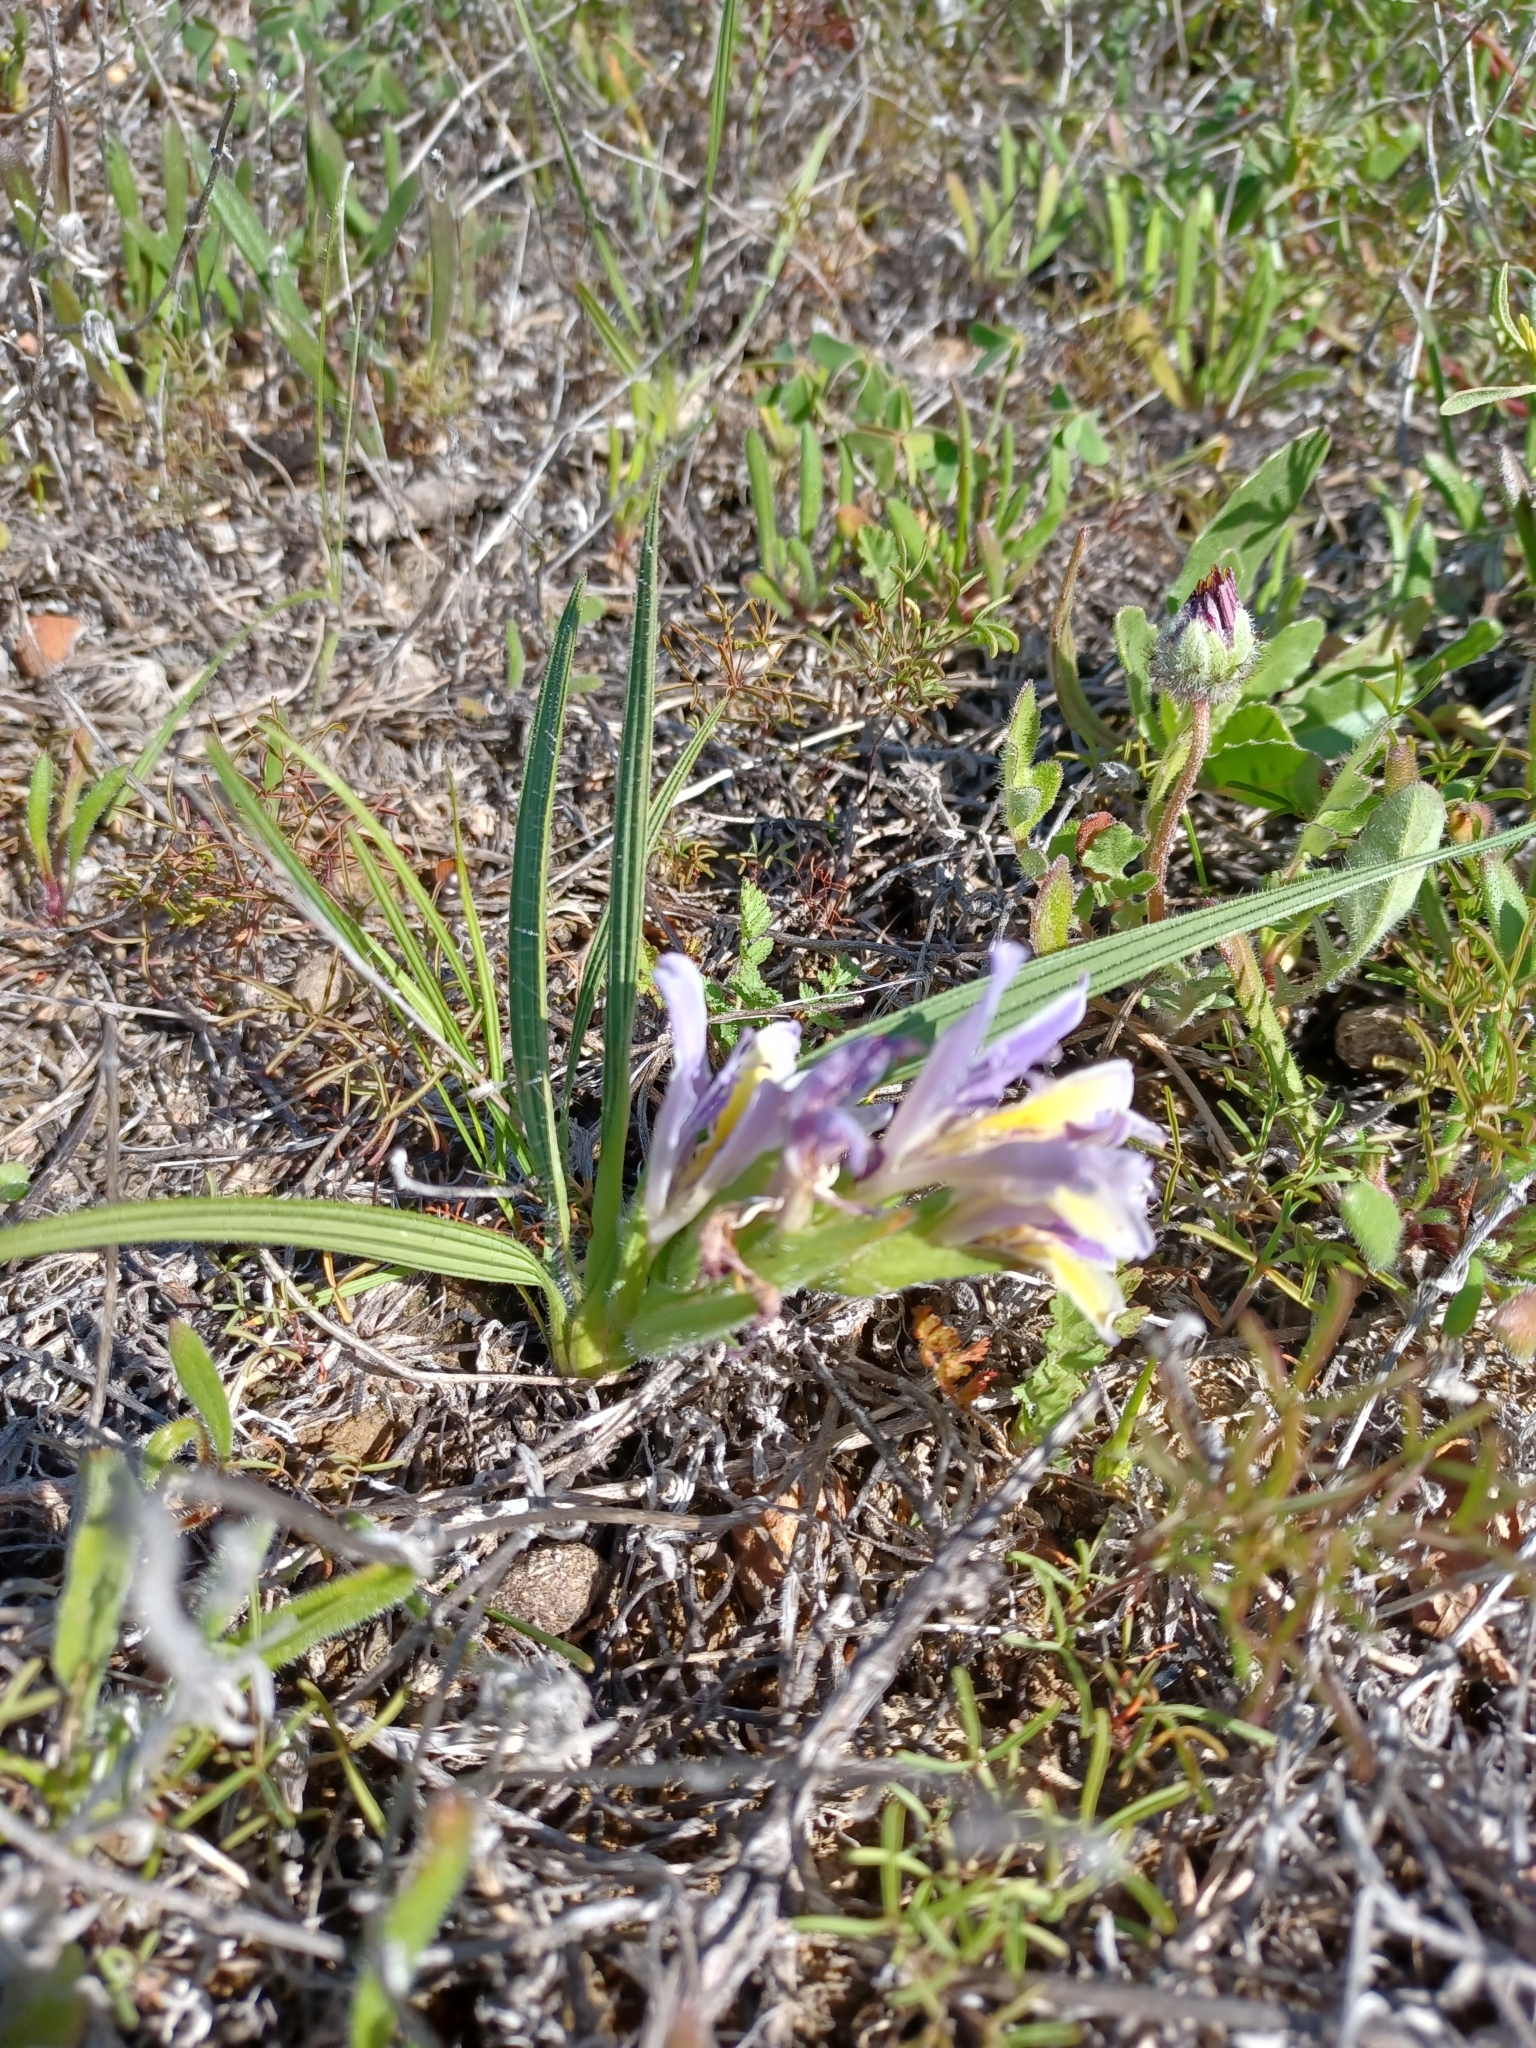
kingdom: Plantae
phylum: Tracheophyta
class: Liliopsida
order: Asparagales
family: Iridaceae
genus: Babiana
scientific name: Babiana patula
